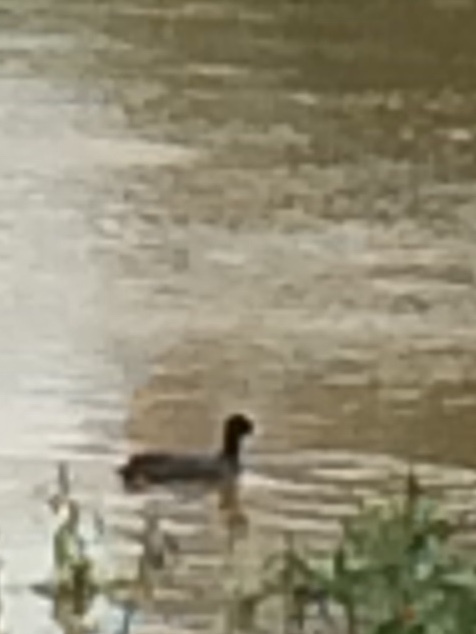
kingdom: Animalia
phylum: Chordata
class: Aves
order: Gruiformes
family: Rallidae
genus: Fulica
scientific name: Fulica atra
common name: Eurasian coot
